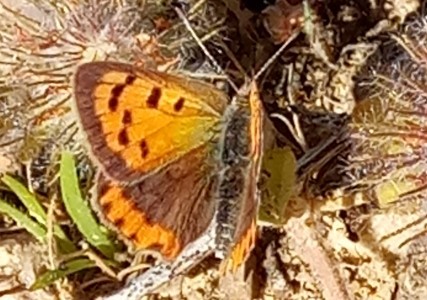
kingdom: Animalia
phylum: Arthropoda
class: Insecta
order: Lepidoptera
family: Lycaenidae
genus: Lycaena
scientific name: Lycaena phlaeas
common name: Small copper
